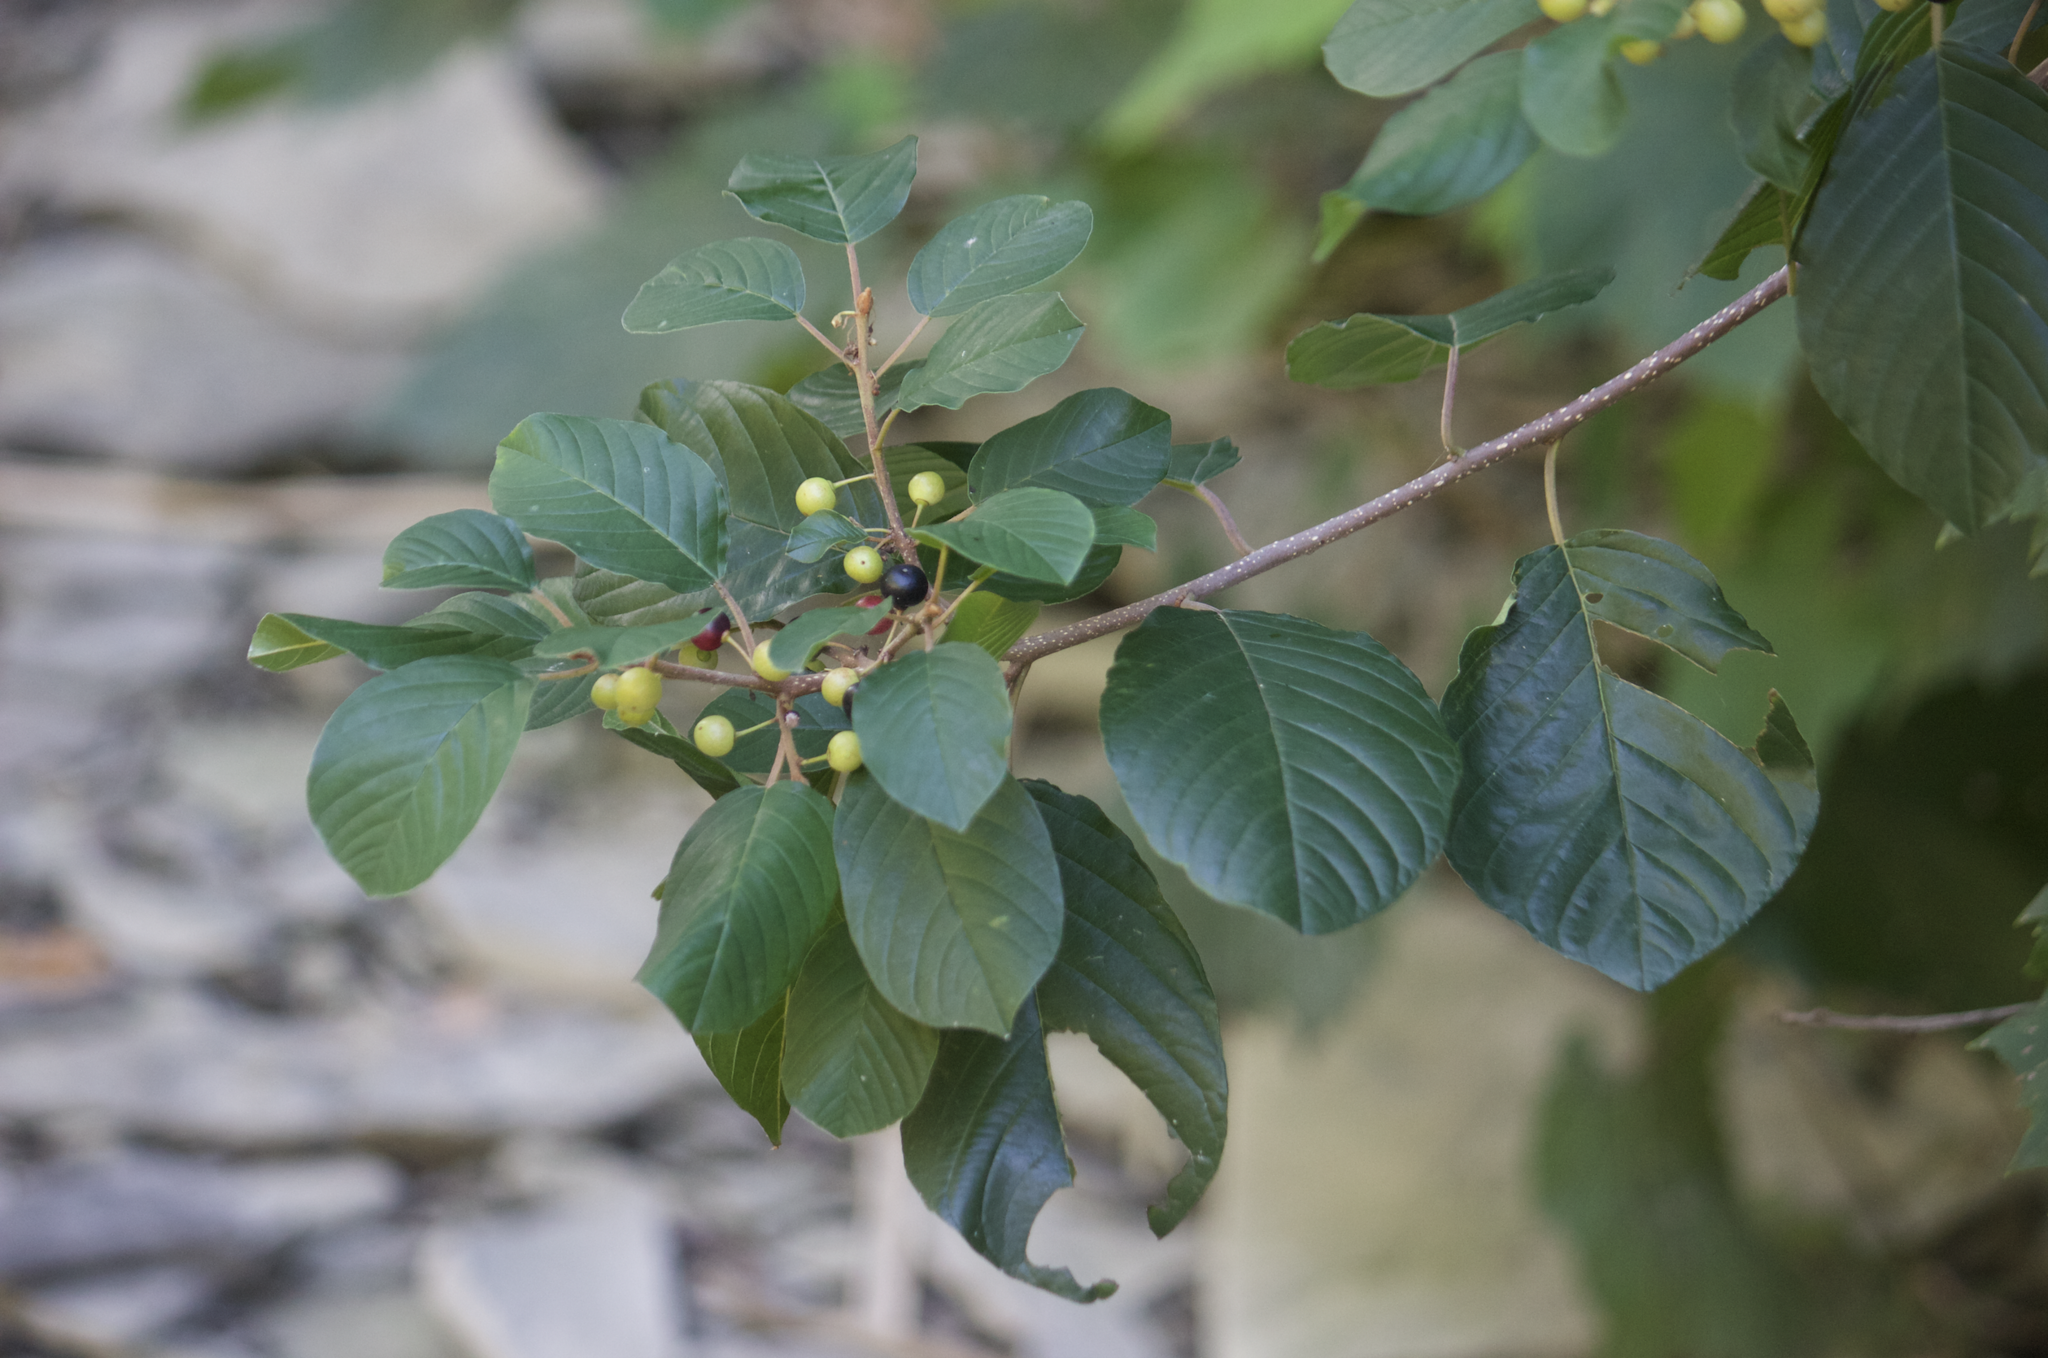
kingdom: Plantae
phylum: Tracheophyta
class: Magnoliopsida
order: Rosales
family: Rhamnaceae
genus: Frangula
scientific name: Frangula alnus
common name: Alder buckthorn
